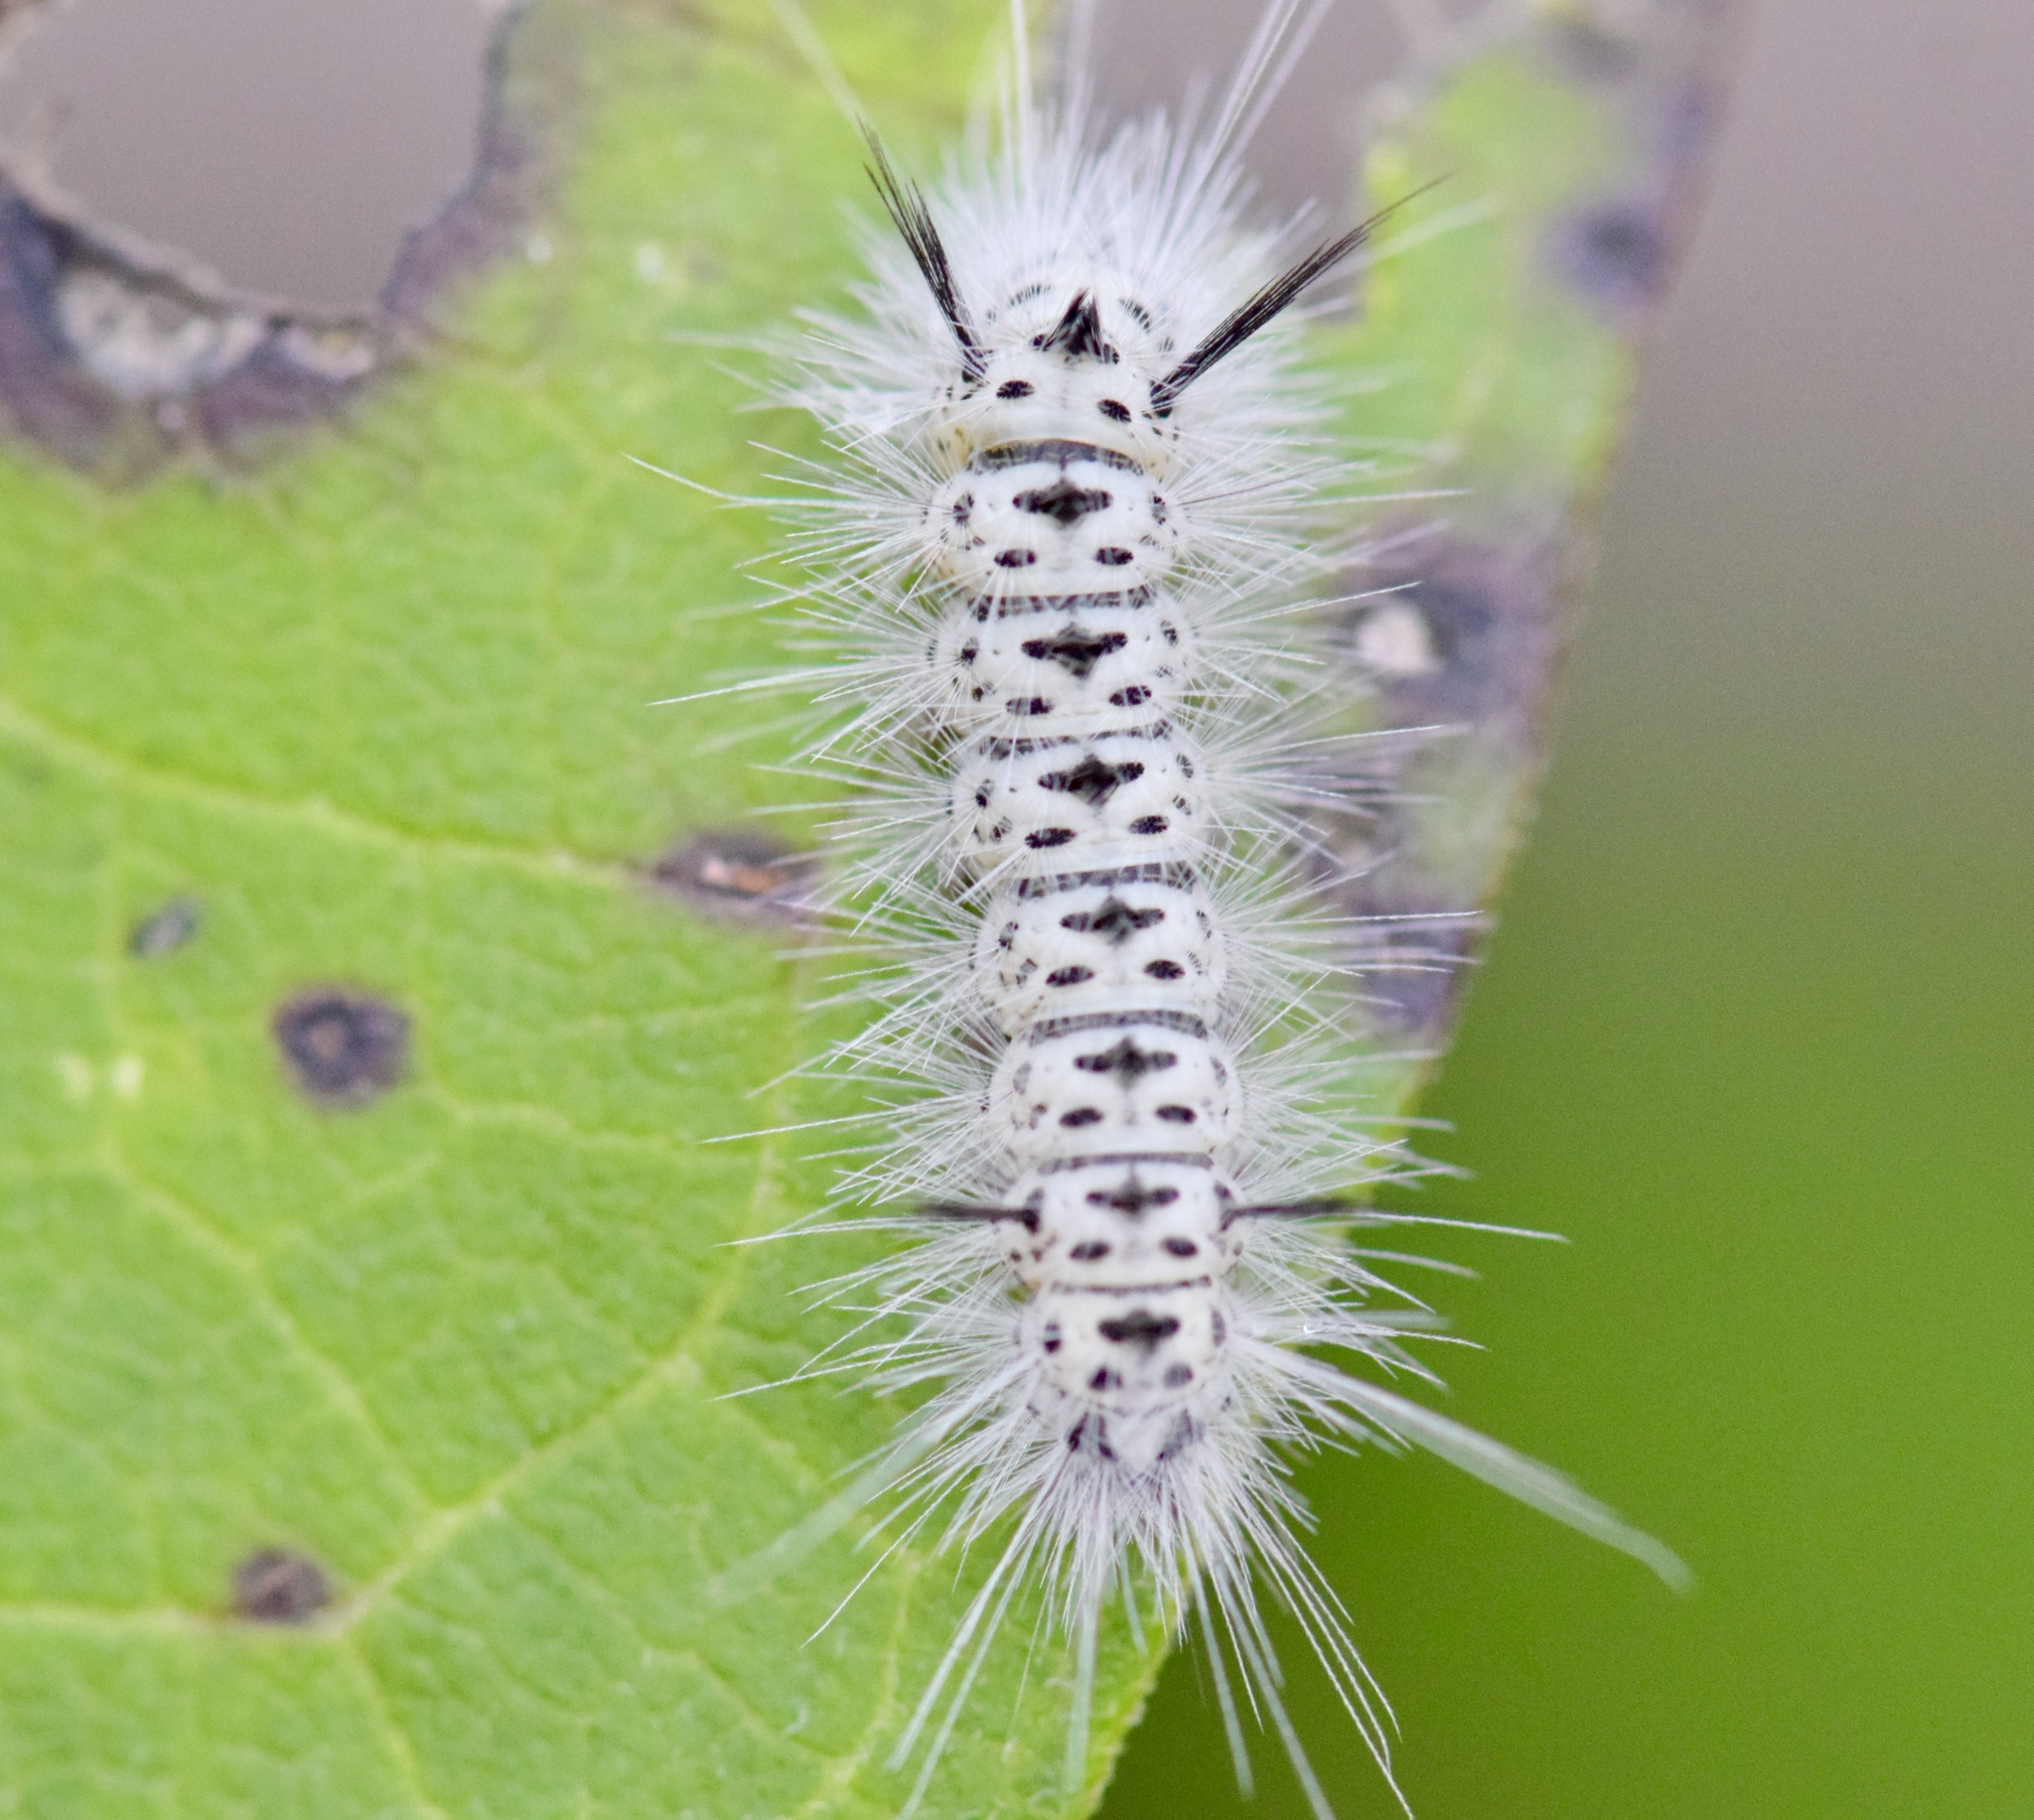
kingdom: Animalia
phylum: Arthropoda
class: Insecta
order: Lepidoptera
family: Erebidae
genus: Lophocampa
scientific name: Lophocampa caryae
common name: Hickory tussock moth
